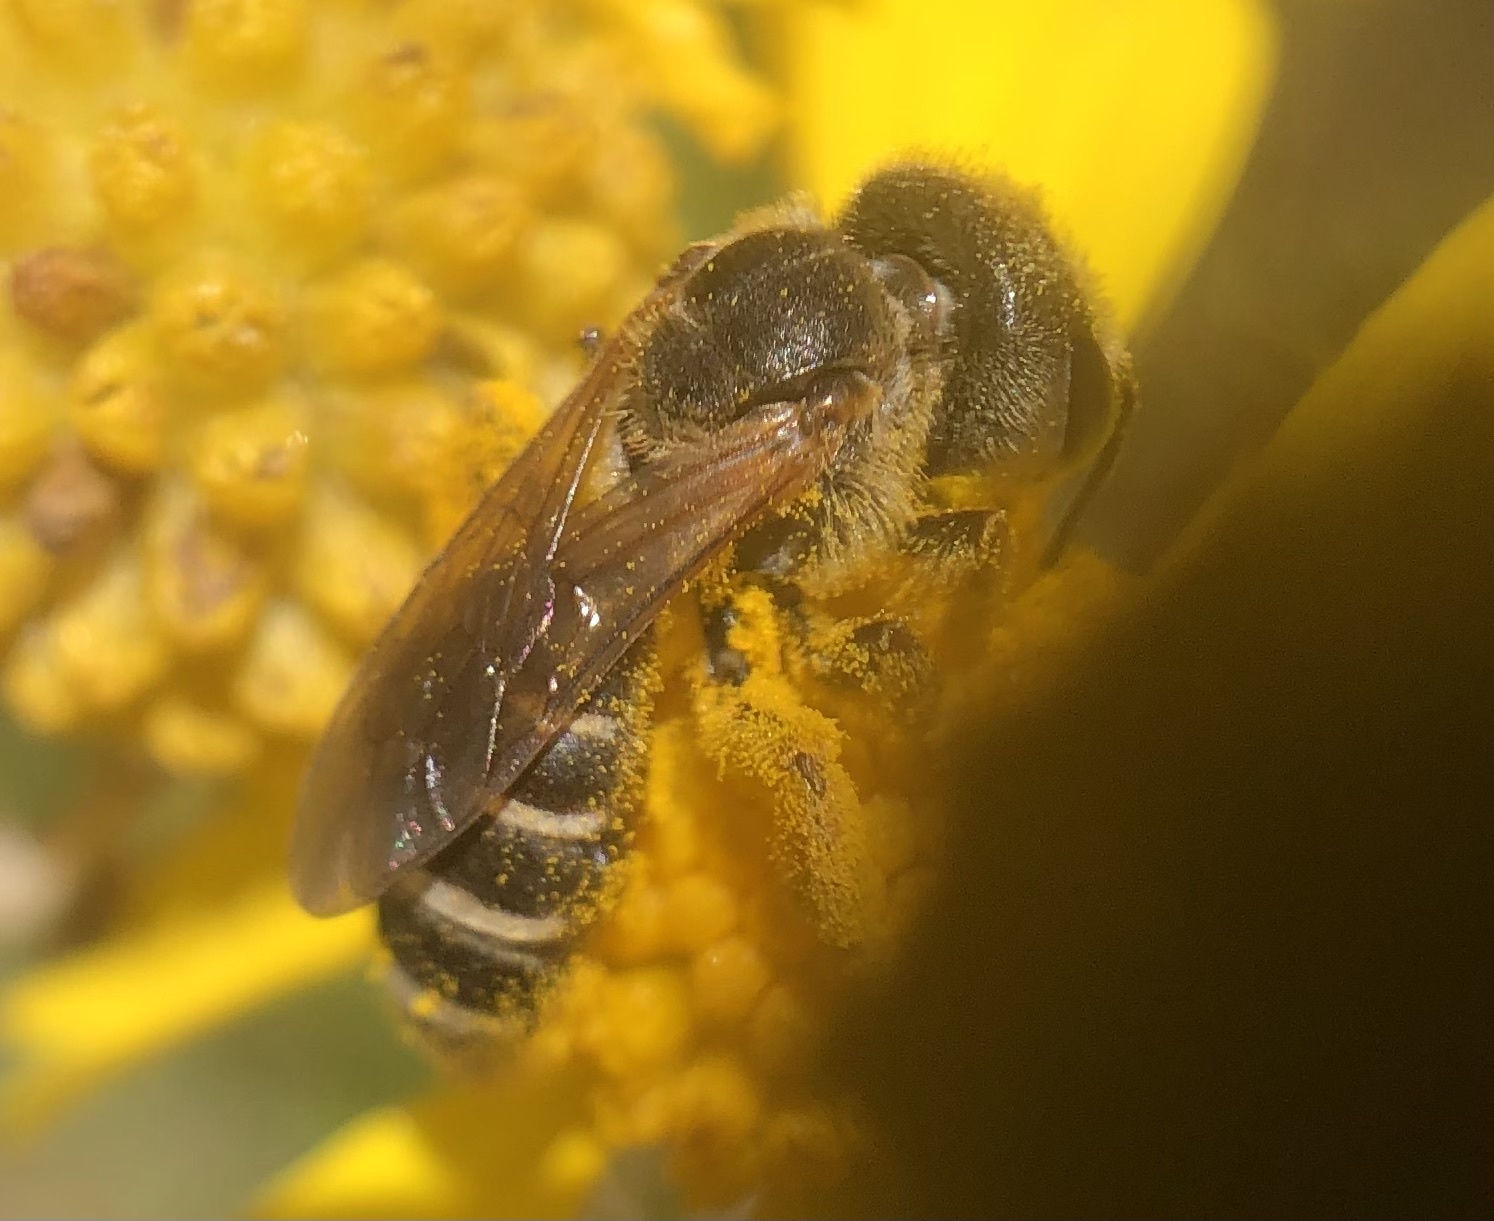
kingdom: Animalia
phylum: Arthropoda
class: Insecta
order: Hymenoptera
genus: Odontalictus
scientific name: Odontalictus
